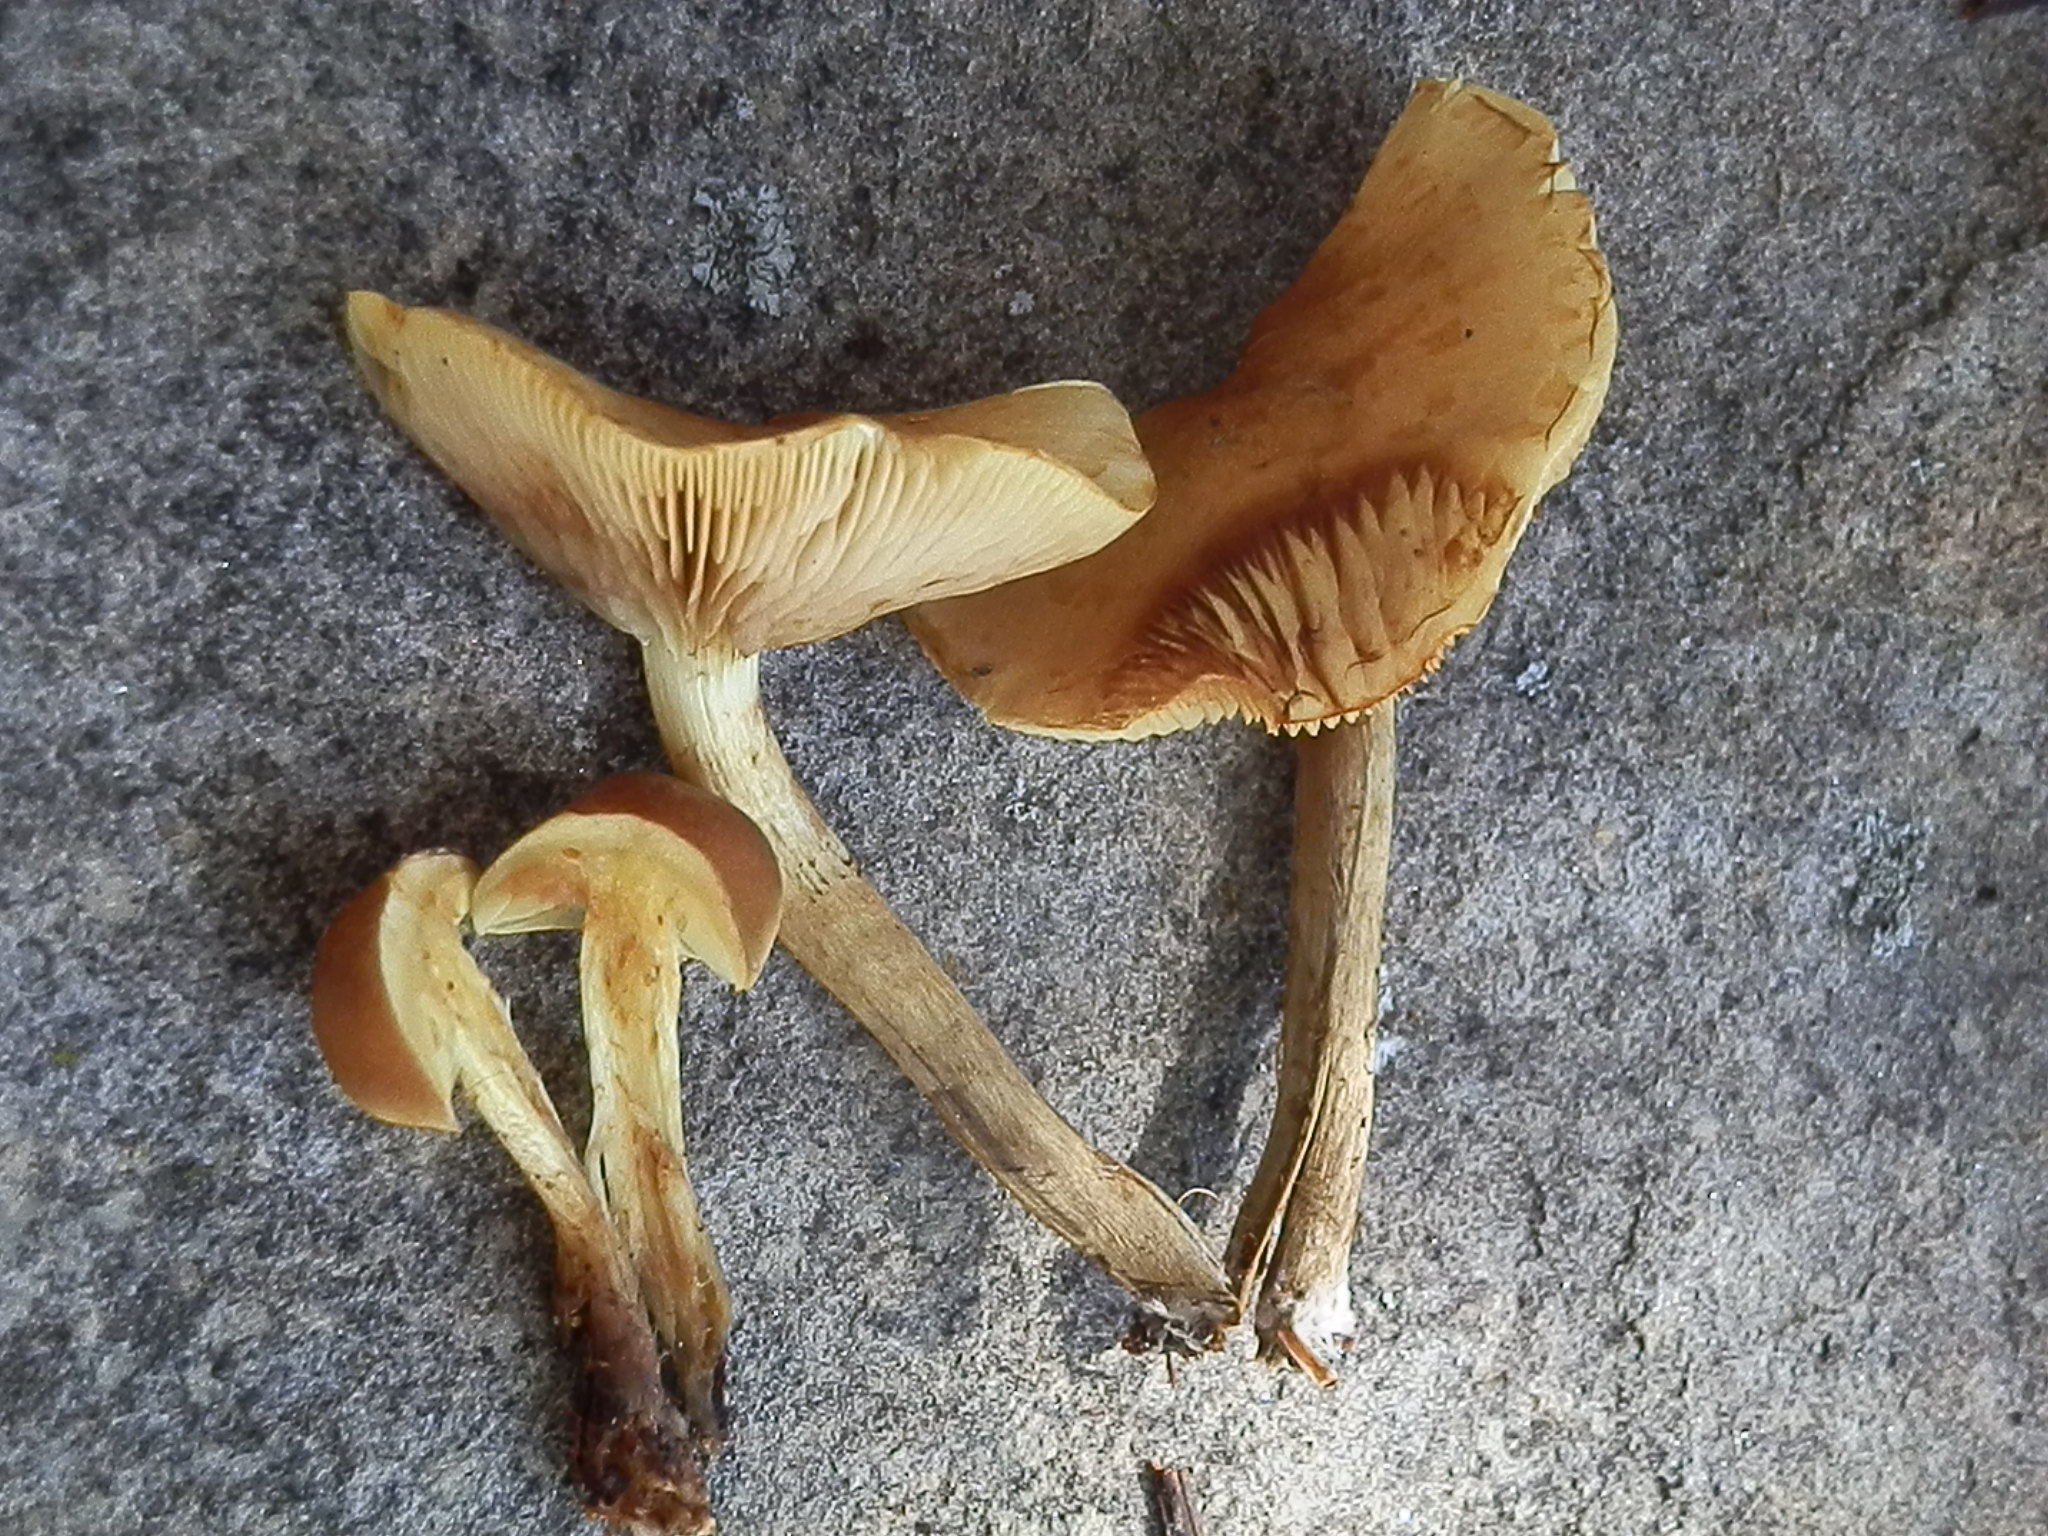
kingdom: Fungi
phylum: Basidiomycota
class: Agaricomycetes
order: Agaricales
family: Strophariaceae
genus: Pholiota
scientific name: Pholiota spumosa
